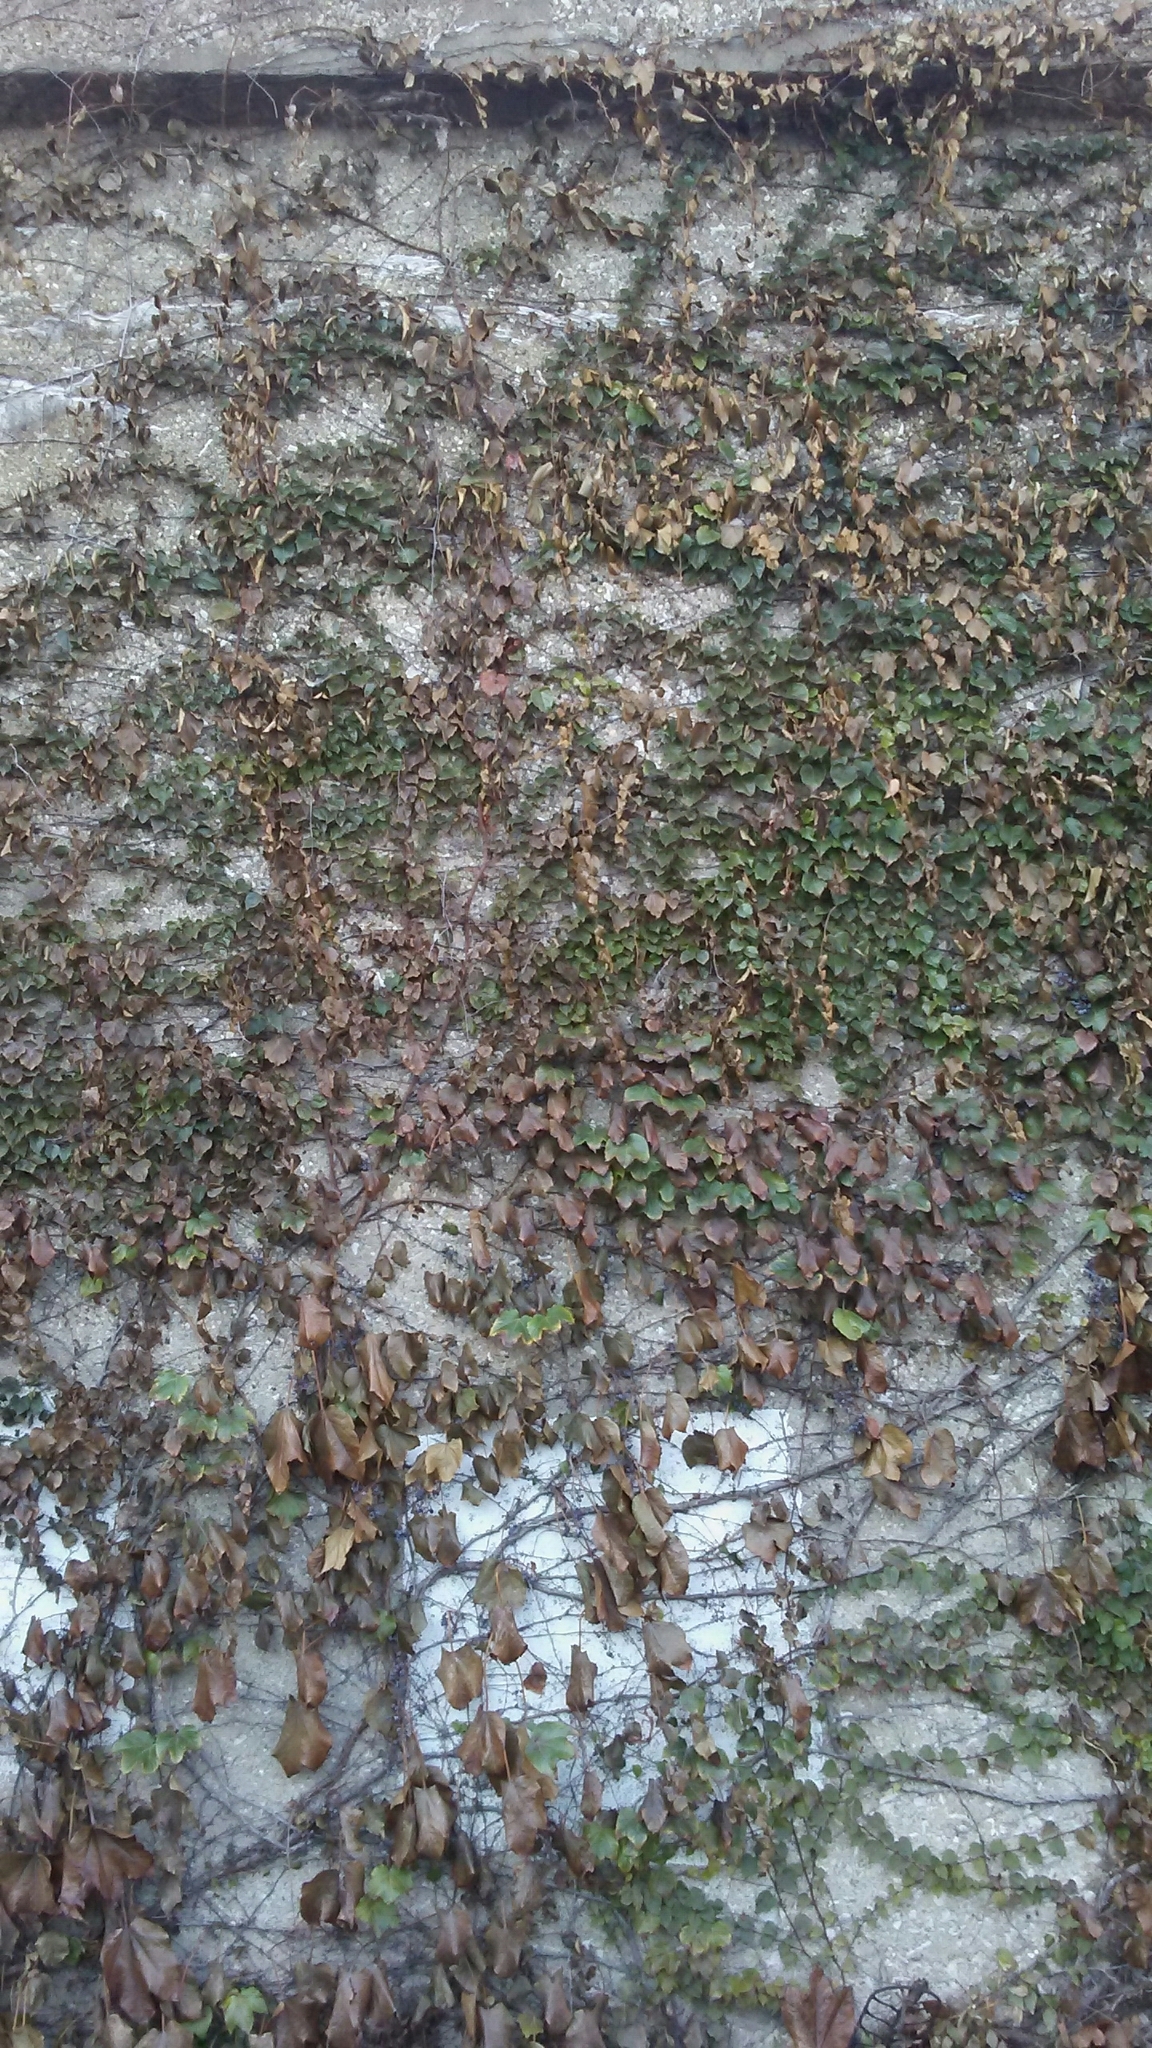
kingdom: Plantae
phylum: Tracheophyta
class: Magnoliopsida
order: Vitales
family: Vitaceae
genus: Parthenocissus
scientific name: Parthenocissus tricuspidata
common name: Boston ivy
